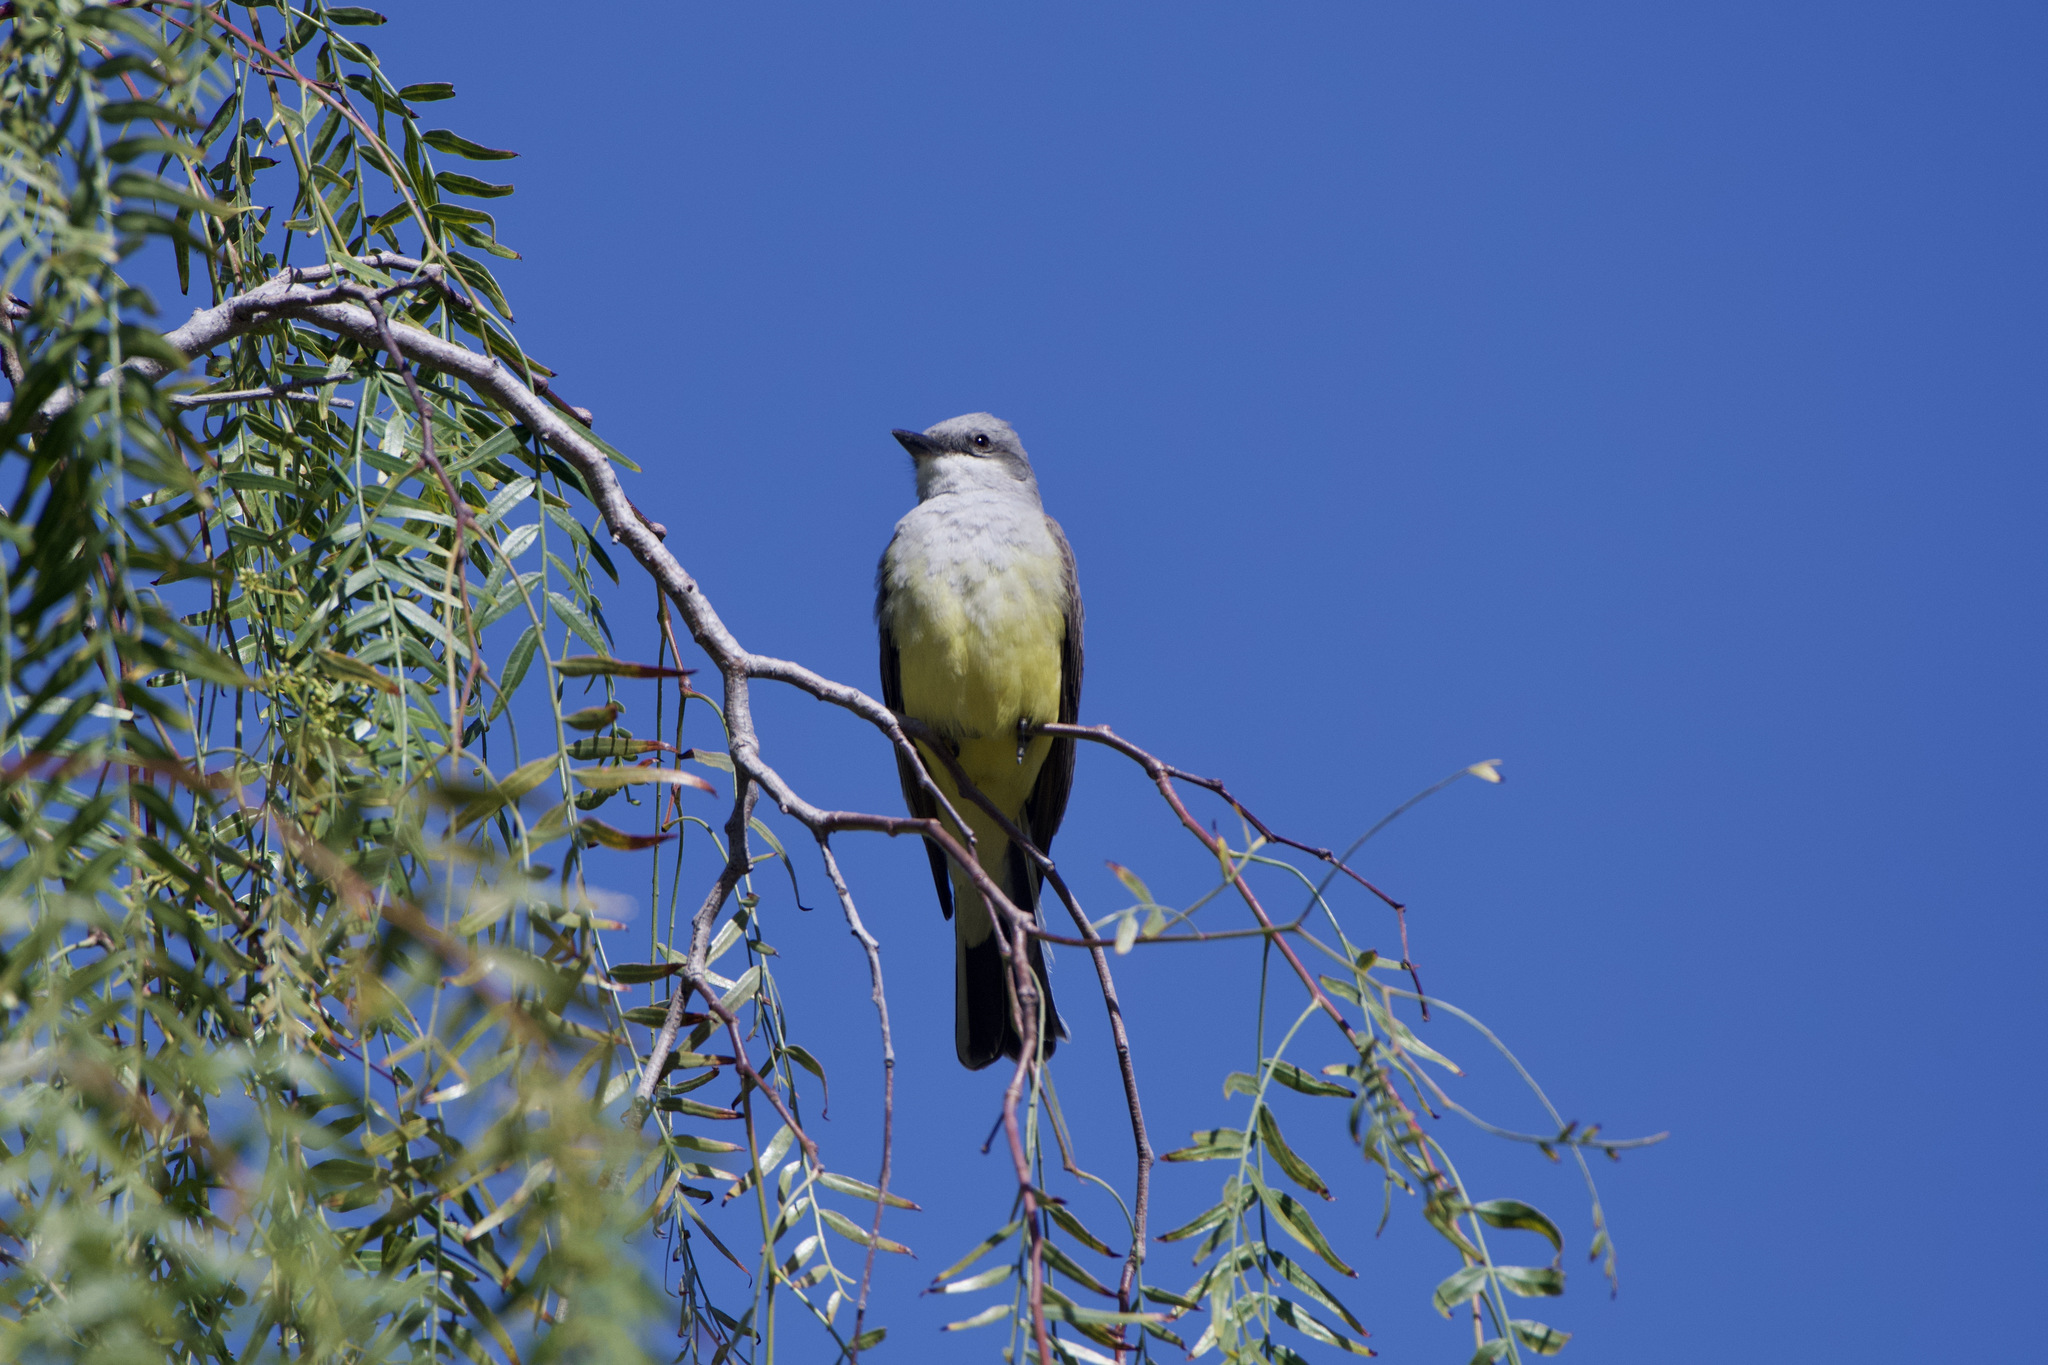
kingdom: Animalia
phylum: Chordata
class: Aves
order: Passeriformes
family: Tyrannidae
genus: Tyrannus
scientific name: Tyrannus verticalis
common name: Western kingbird
